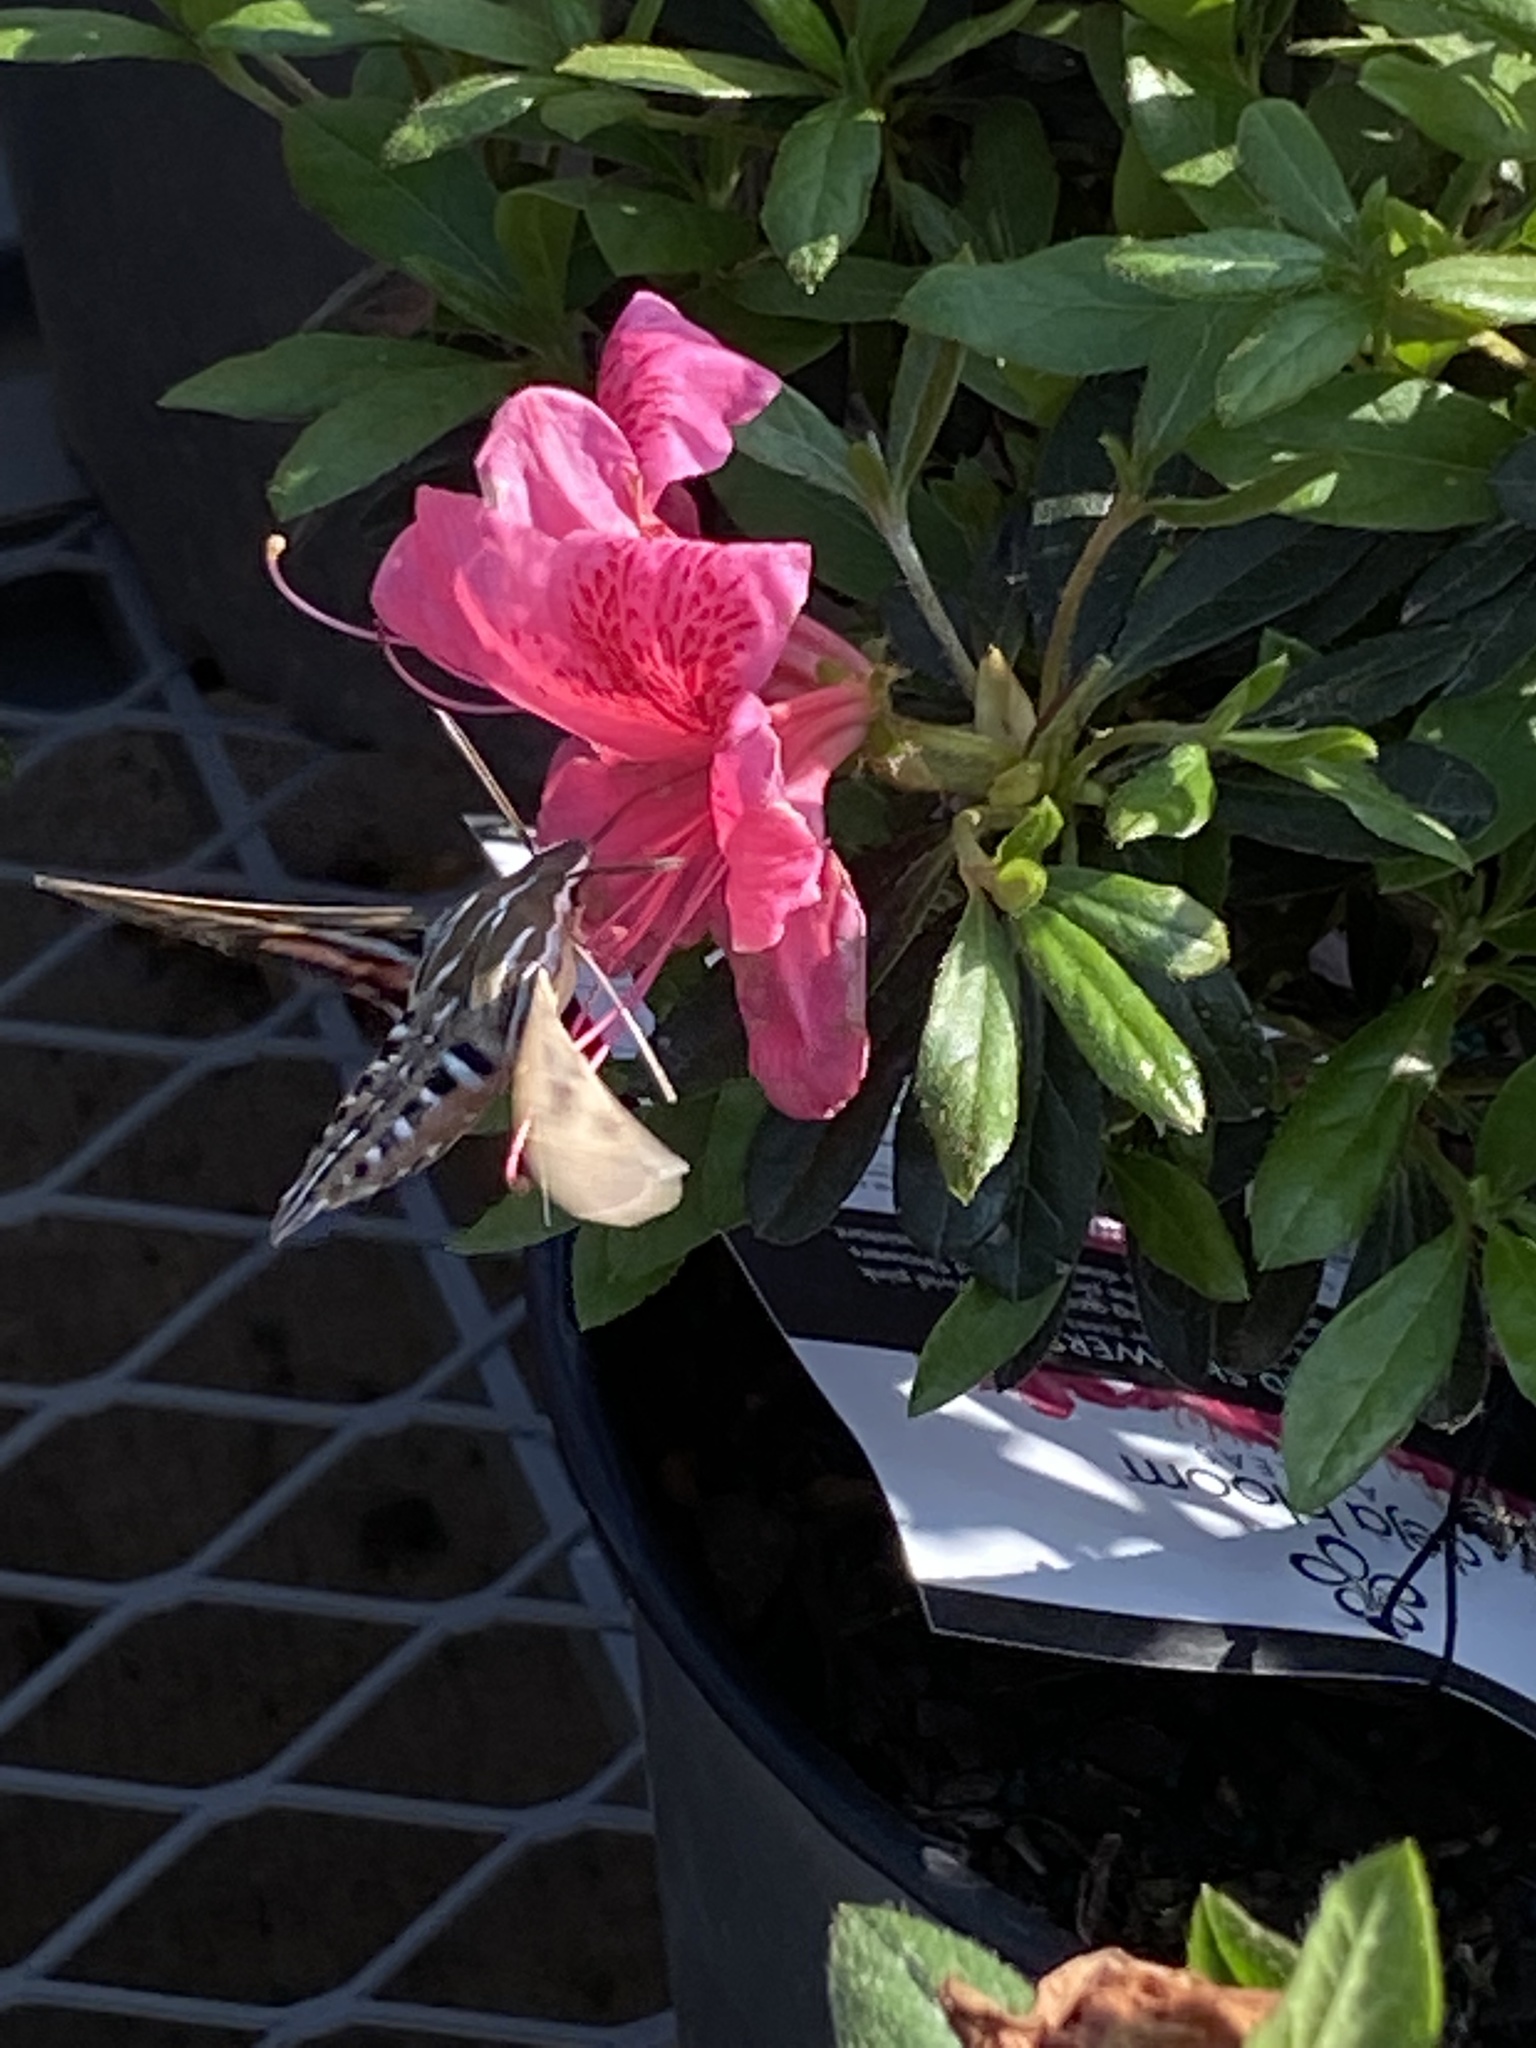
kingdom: Animalia
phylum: Arthropoda
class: Insecta
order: Lepidoptera
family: Sphingidae
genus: Hyles
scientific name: Hyles lineata
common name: White-lined sphinx
